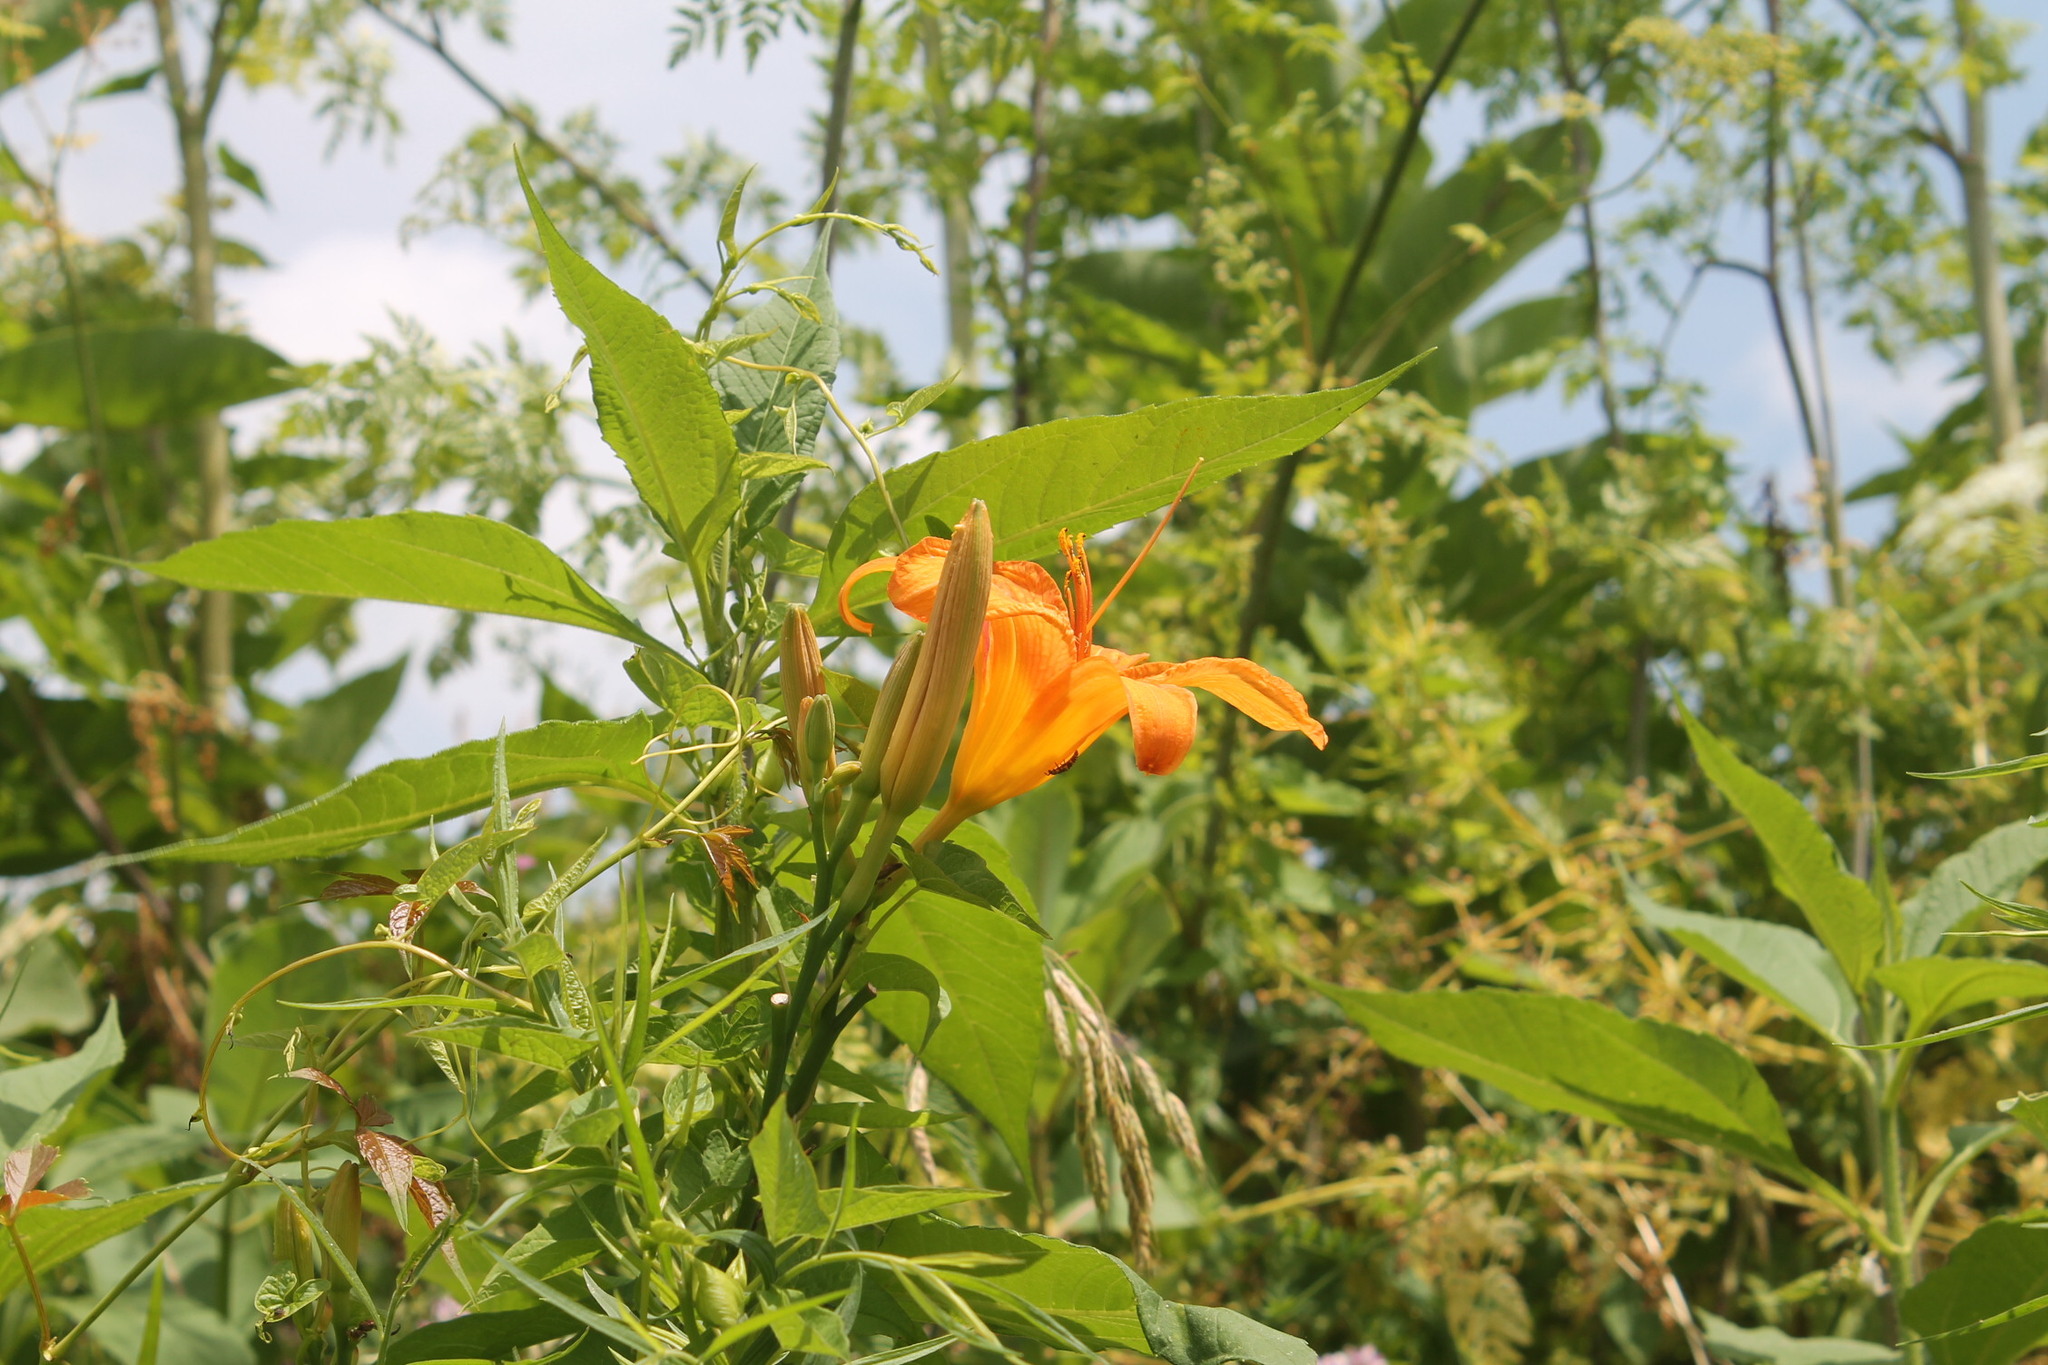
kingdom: Plantae
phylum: Tracheophyta
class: Liliopsida
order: Asparagales
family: Asphodelaceae
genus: Hemerocallis
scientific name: Hemerocallis fulva
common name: Orange day-lily
